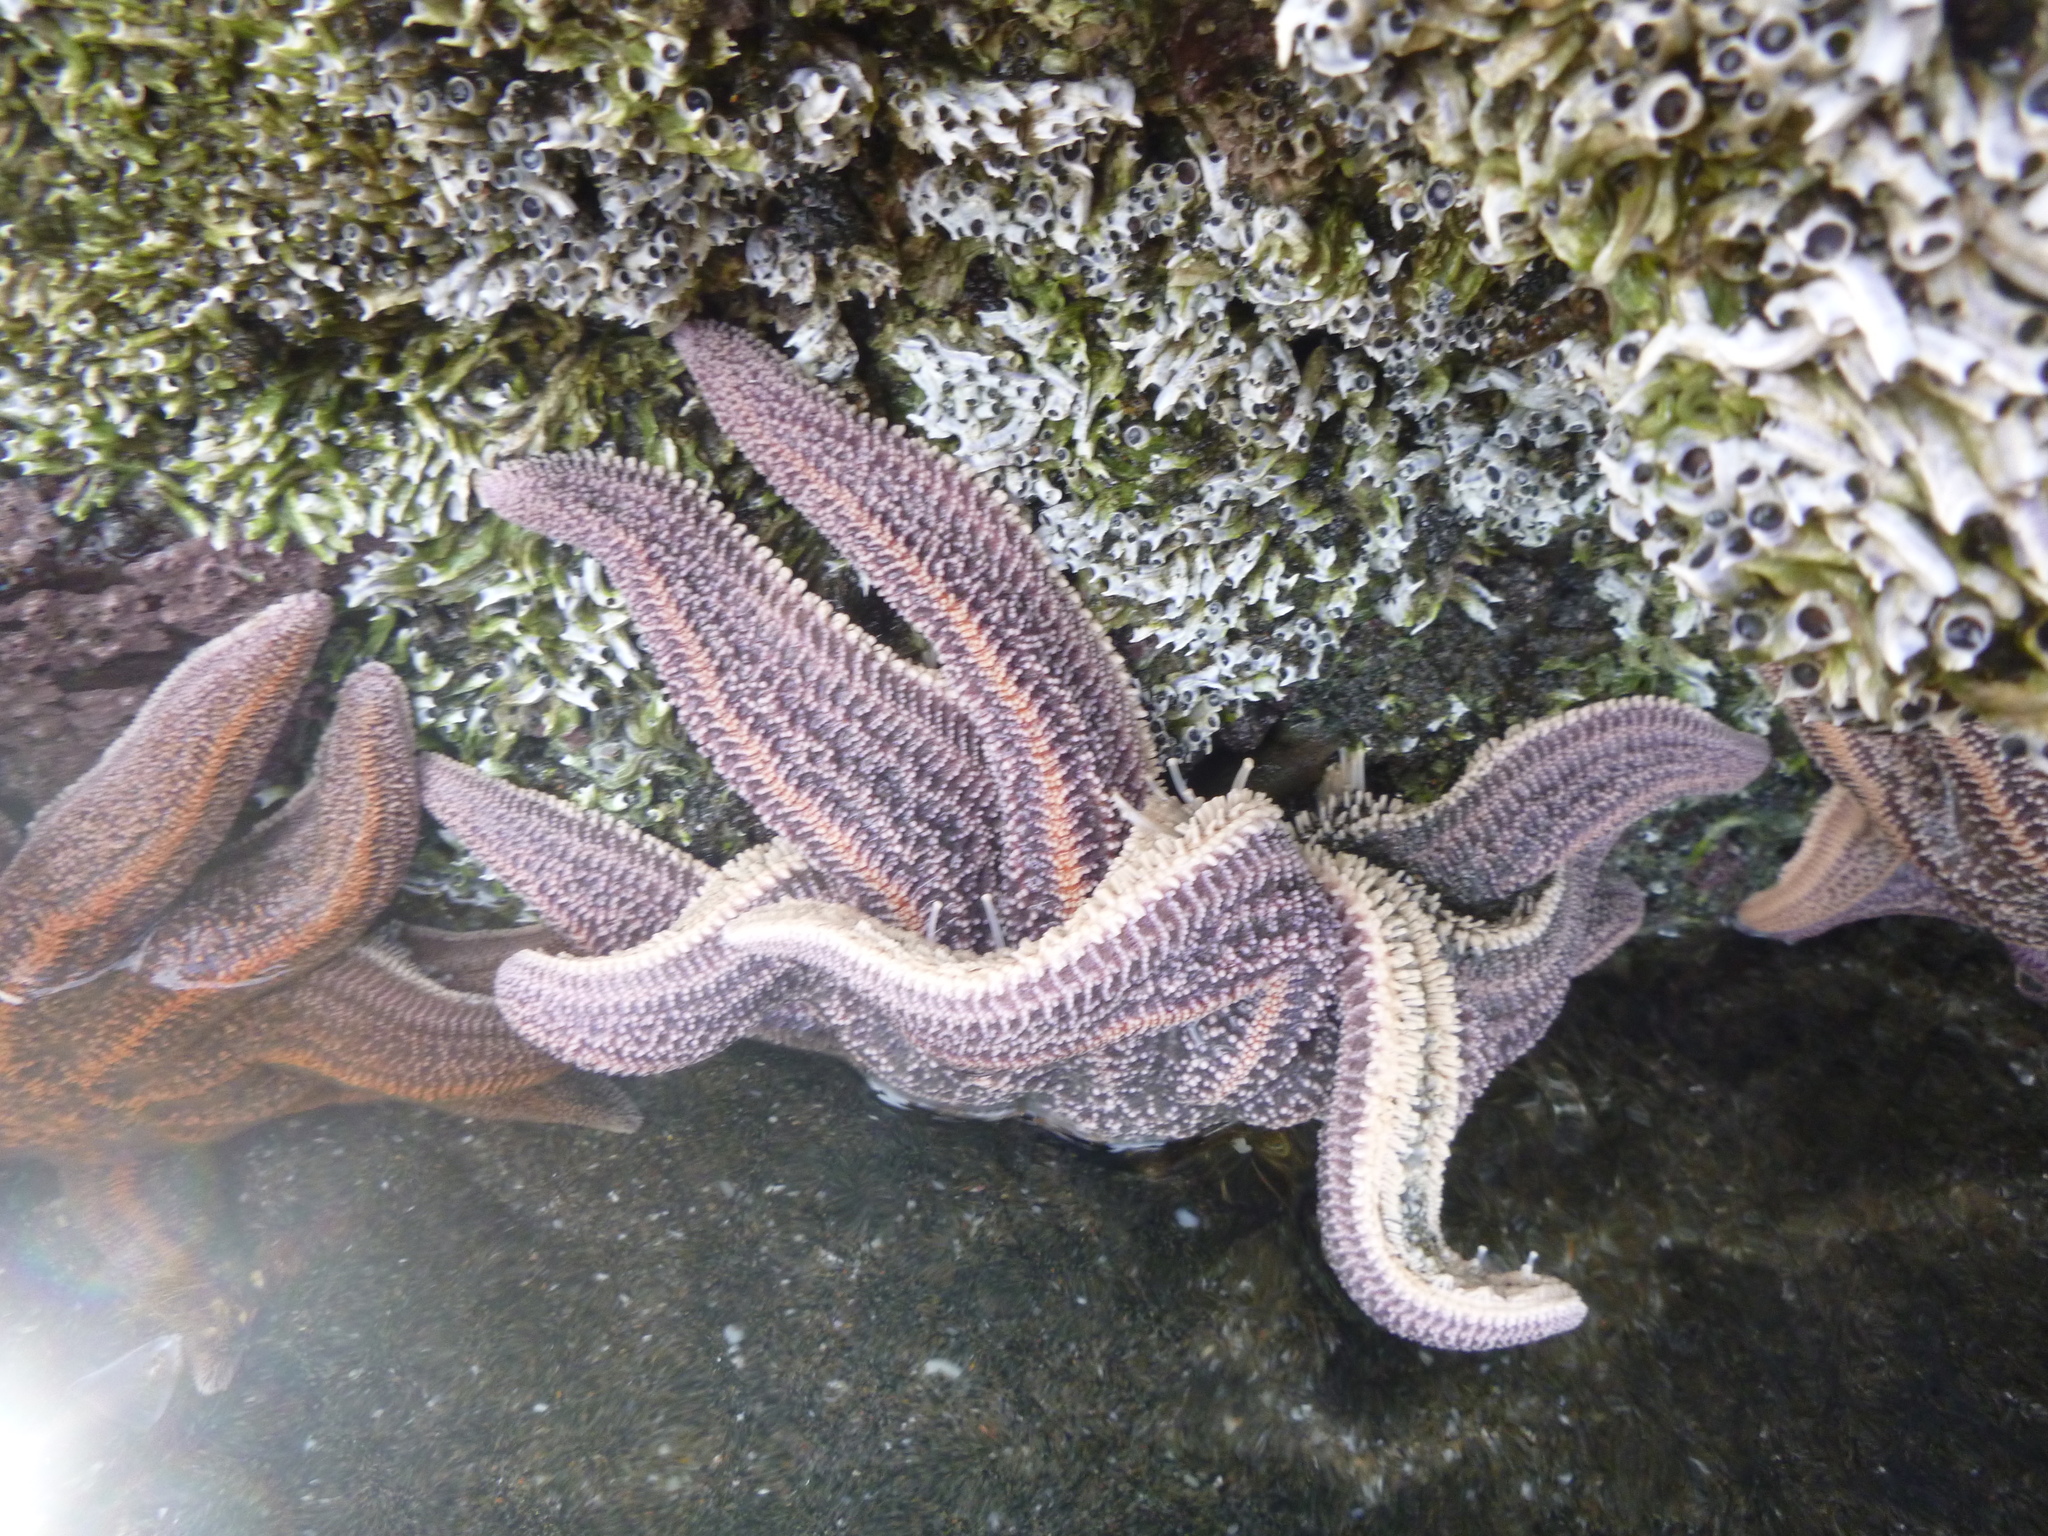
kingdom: Animalia
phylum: Echinodermata
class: Asteroidea
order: Forcipulatida
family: Stichasteridae
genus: Stichaster
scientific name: Stichaster australis
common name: Reef starfish
